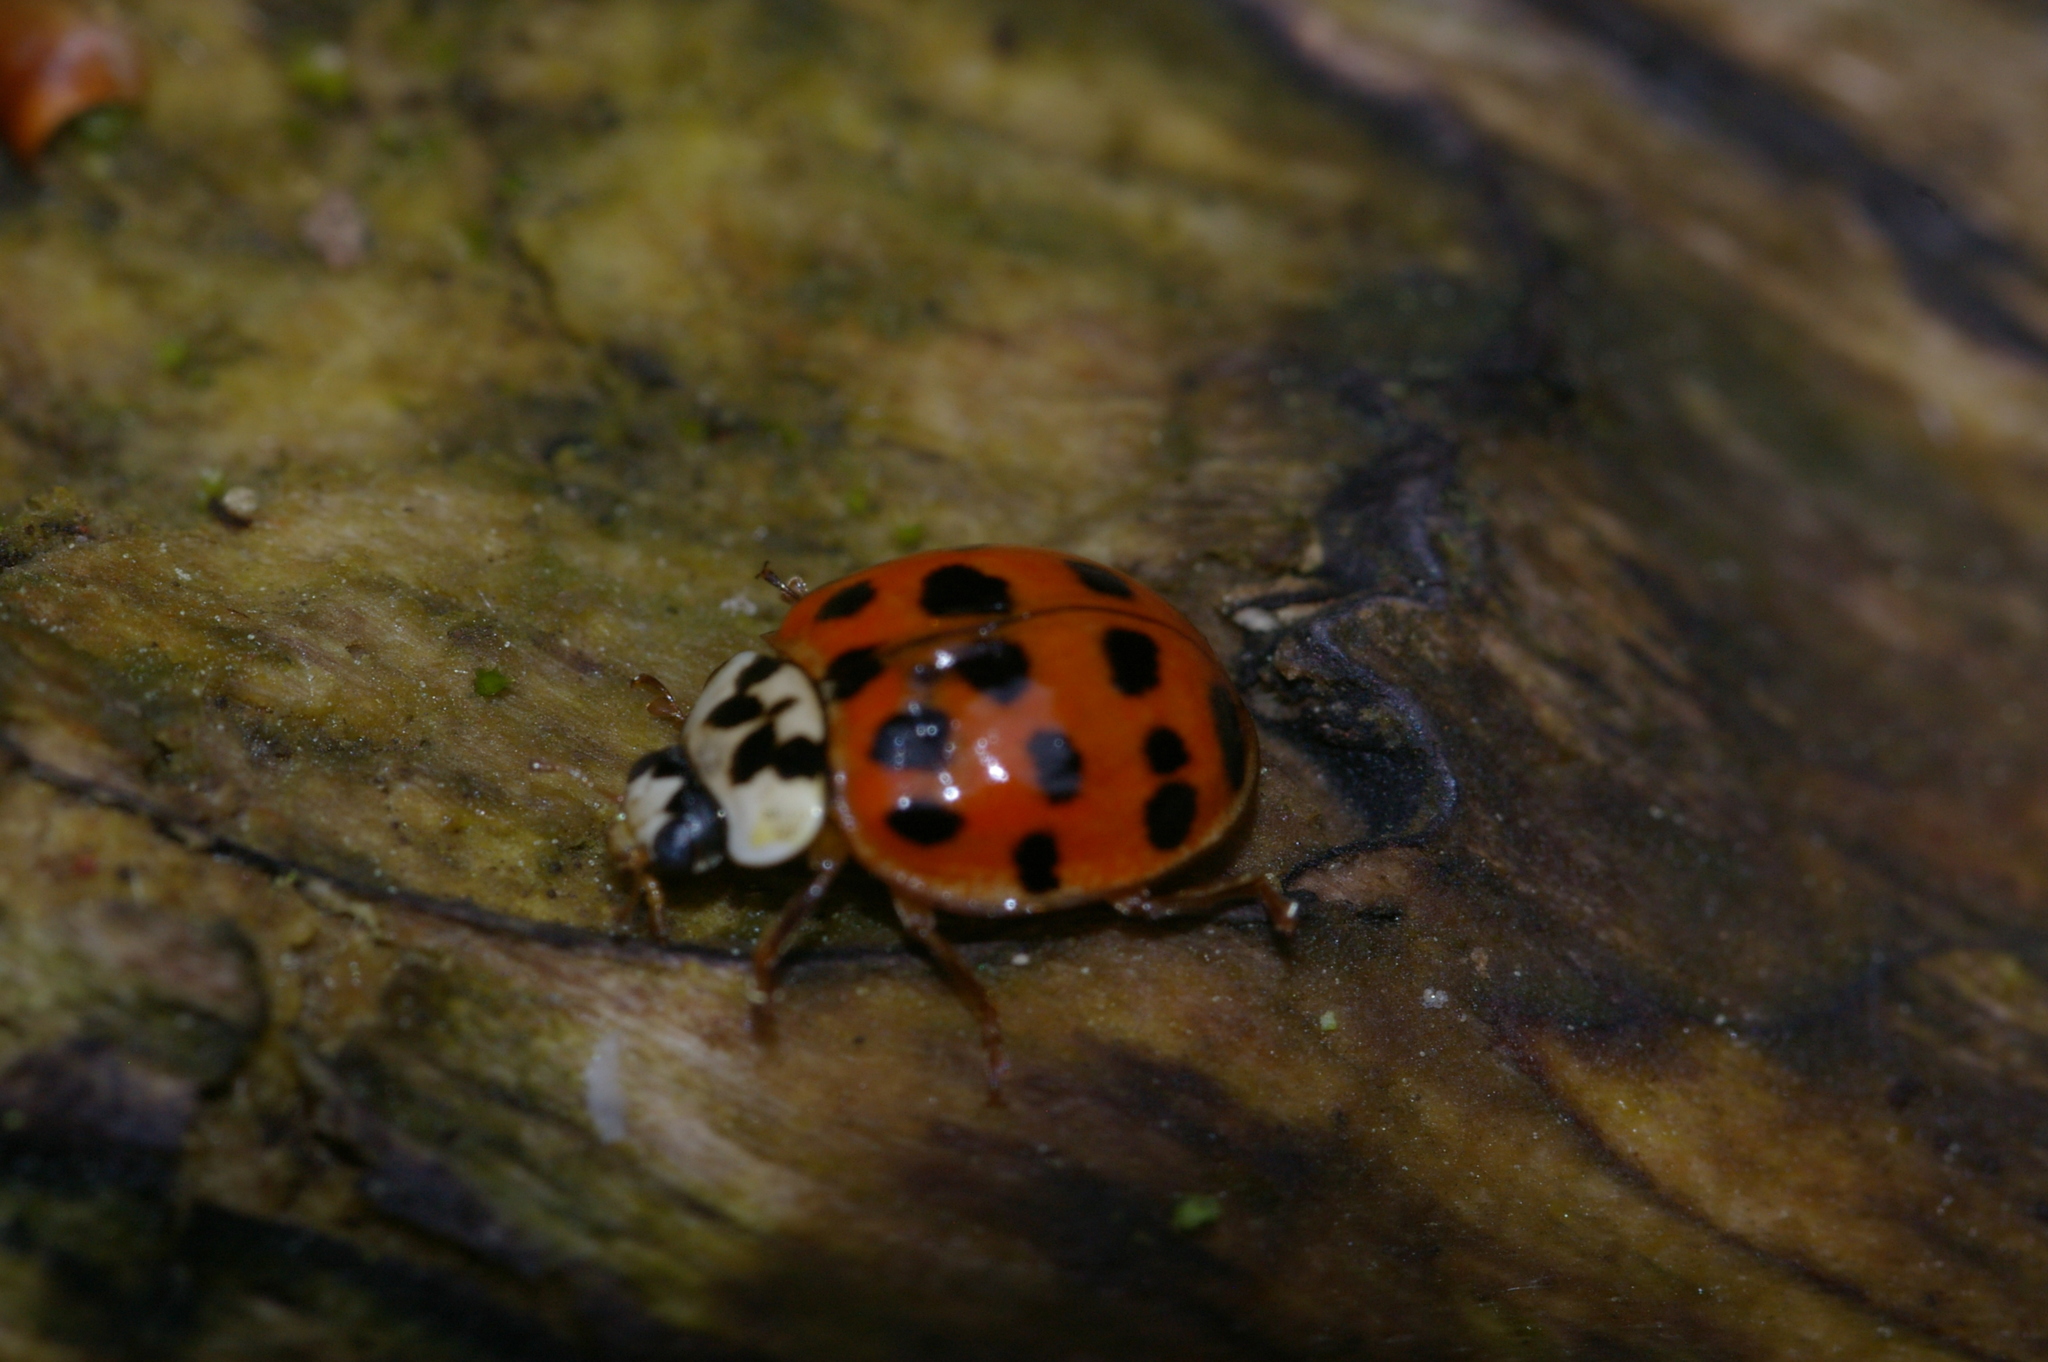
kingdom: Animalia
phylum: Arthropoda
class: Insecta
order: Coleoptera
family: Coccinellidae
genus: Harmonia
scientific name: Harmonia axyridis
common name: Harlequin ladybird
